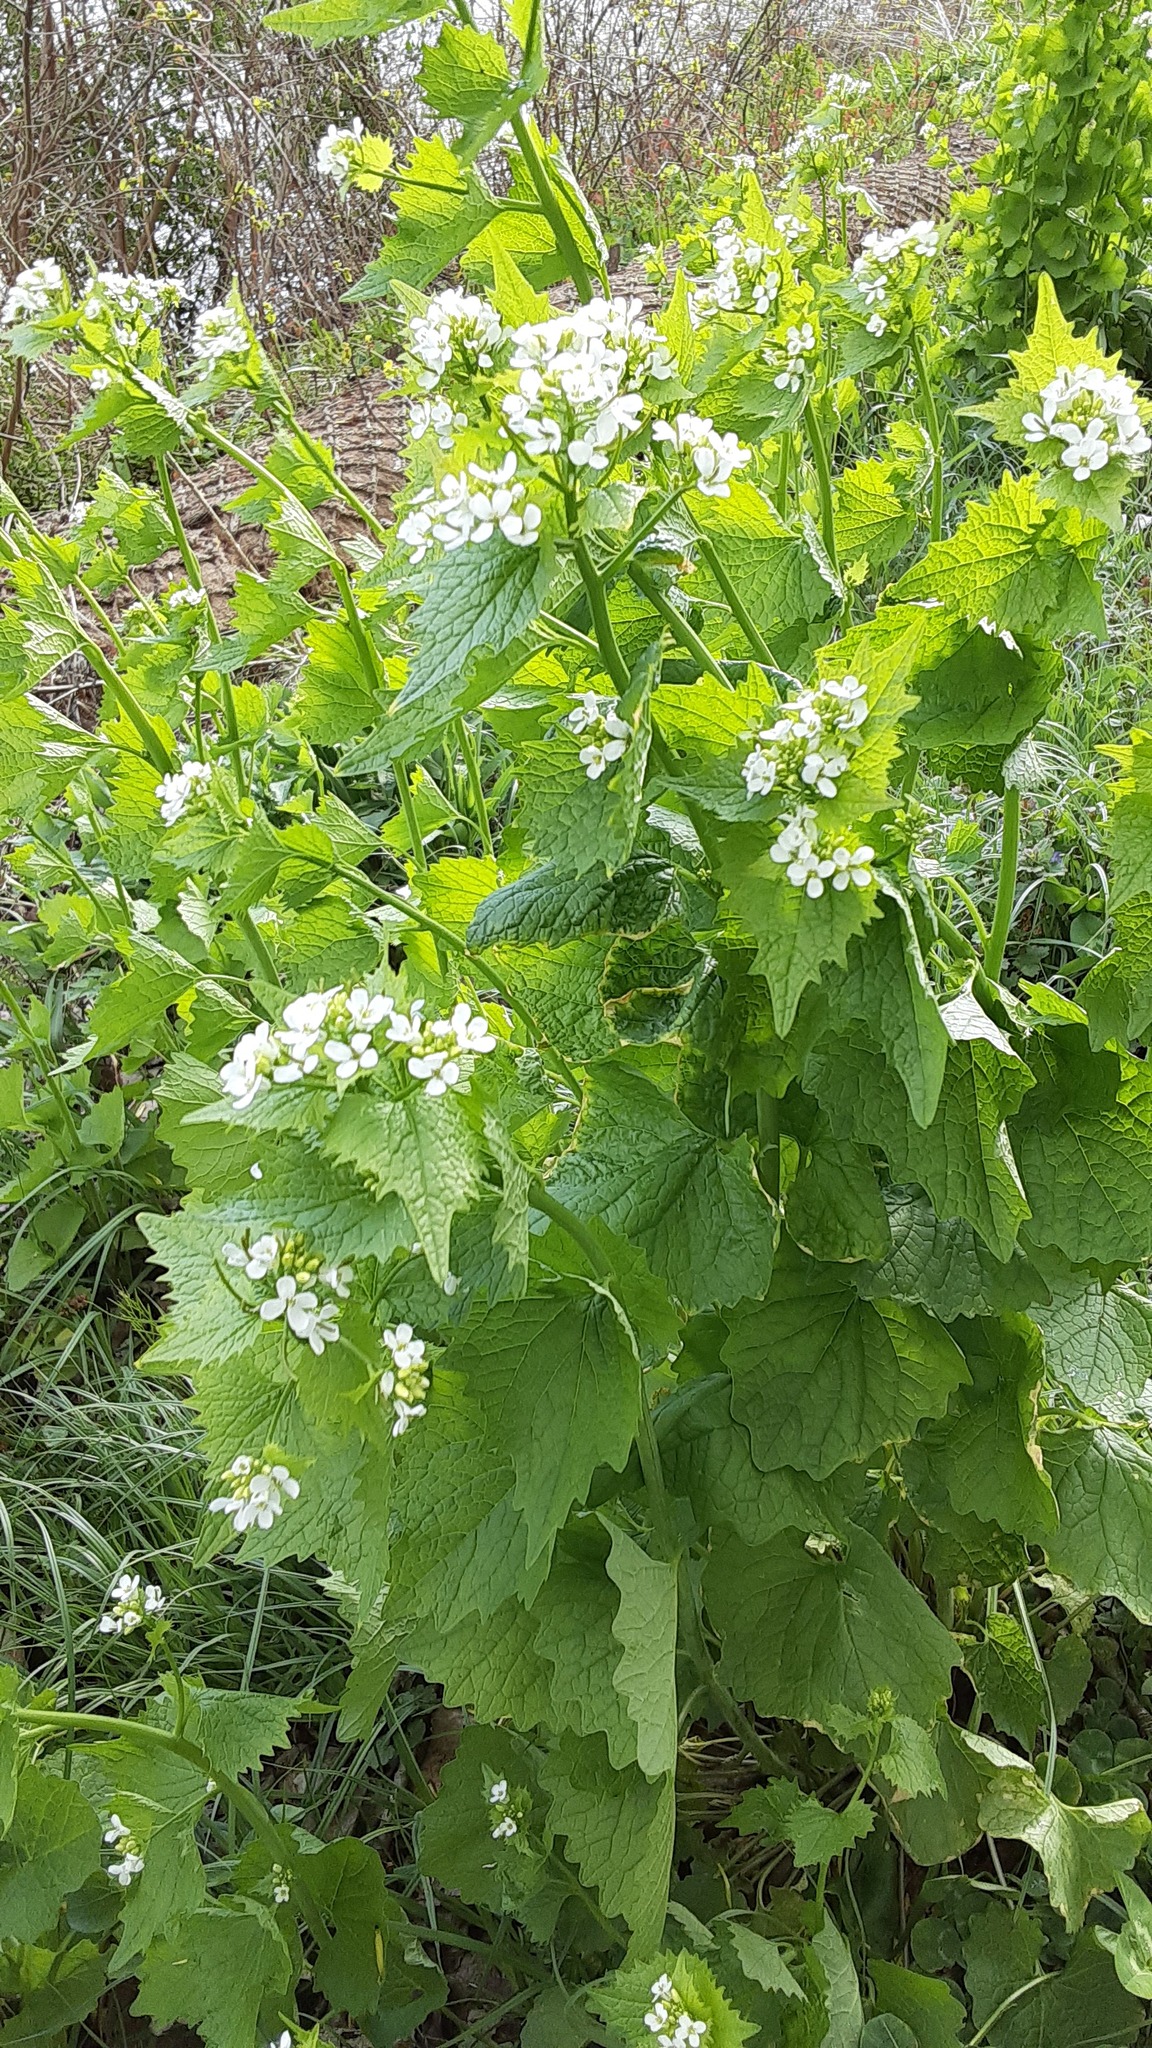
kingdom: Plantae
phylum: Tracheophyta
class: Magnoliopsida
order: Brassicales
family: Brassicaceae
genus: Alliaria
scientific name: Alliaria petiolata
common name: Garlic mustard
